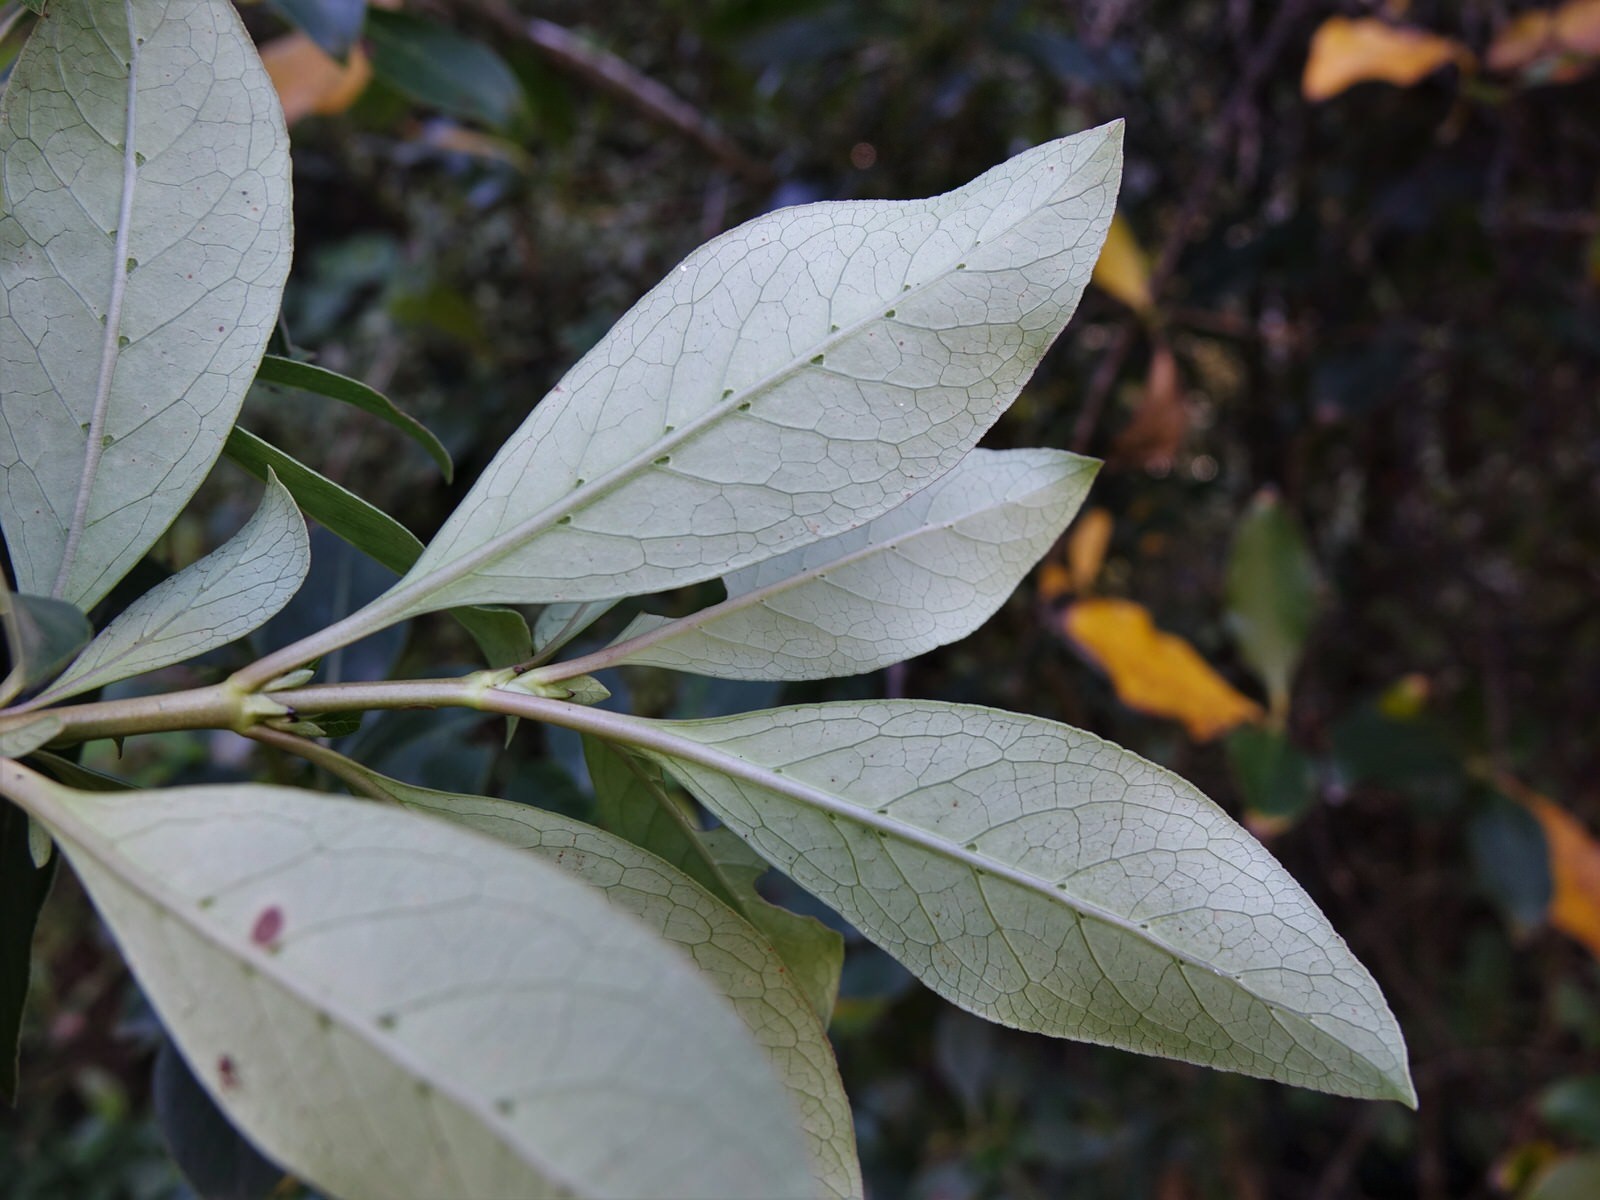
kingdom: Plantae
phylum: Tracheophyta
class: Magnoliopsida
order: Gentianales
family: Rubiaceae
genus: Coprosma
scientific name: Coprosma robusta
